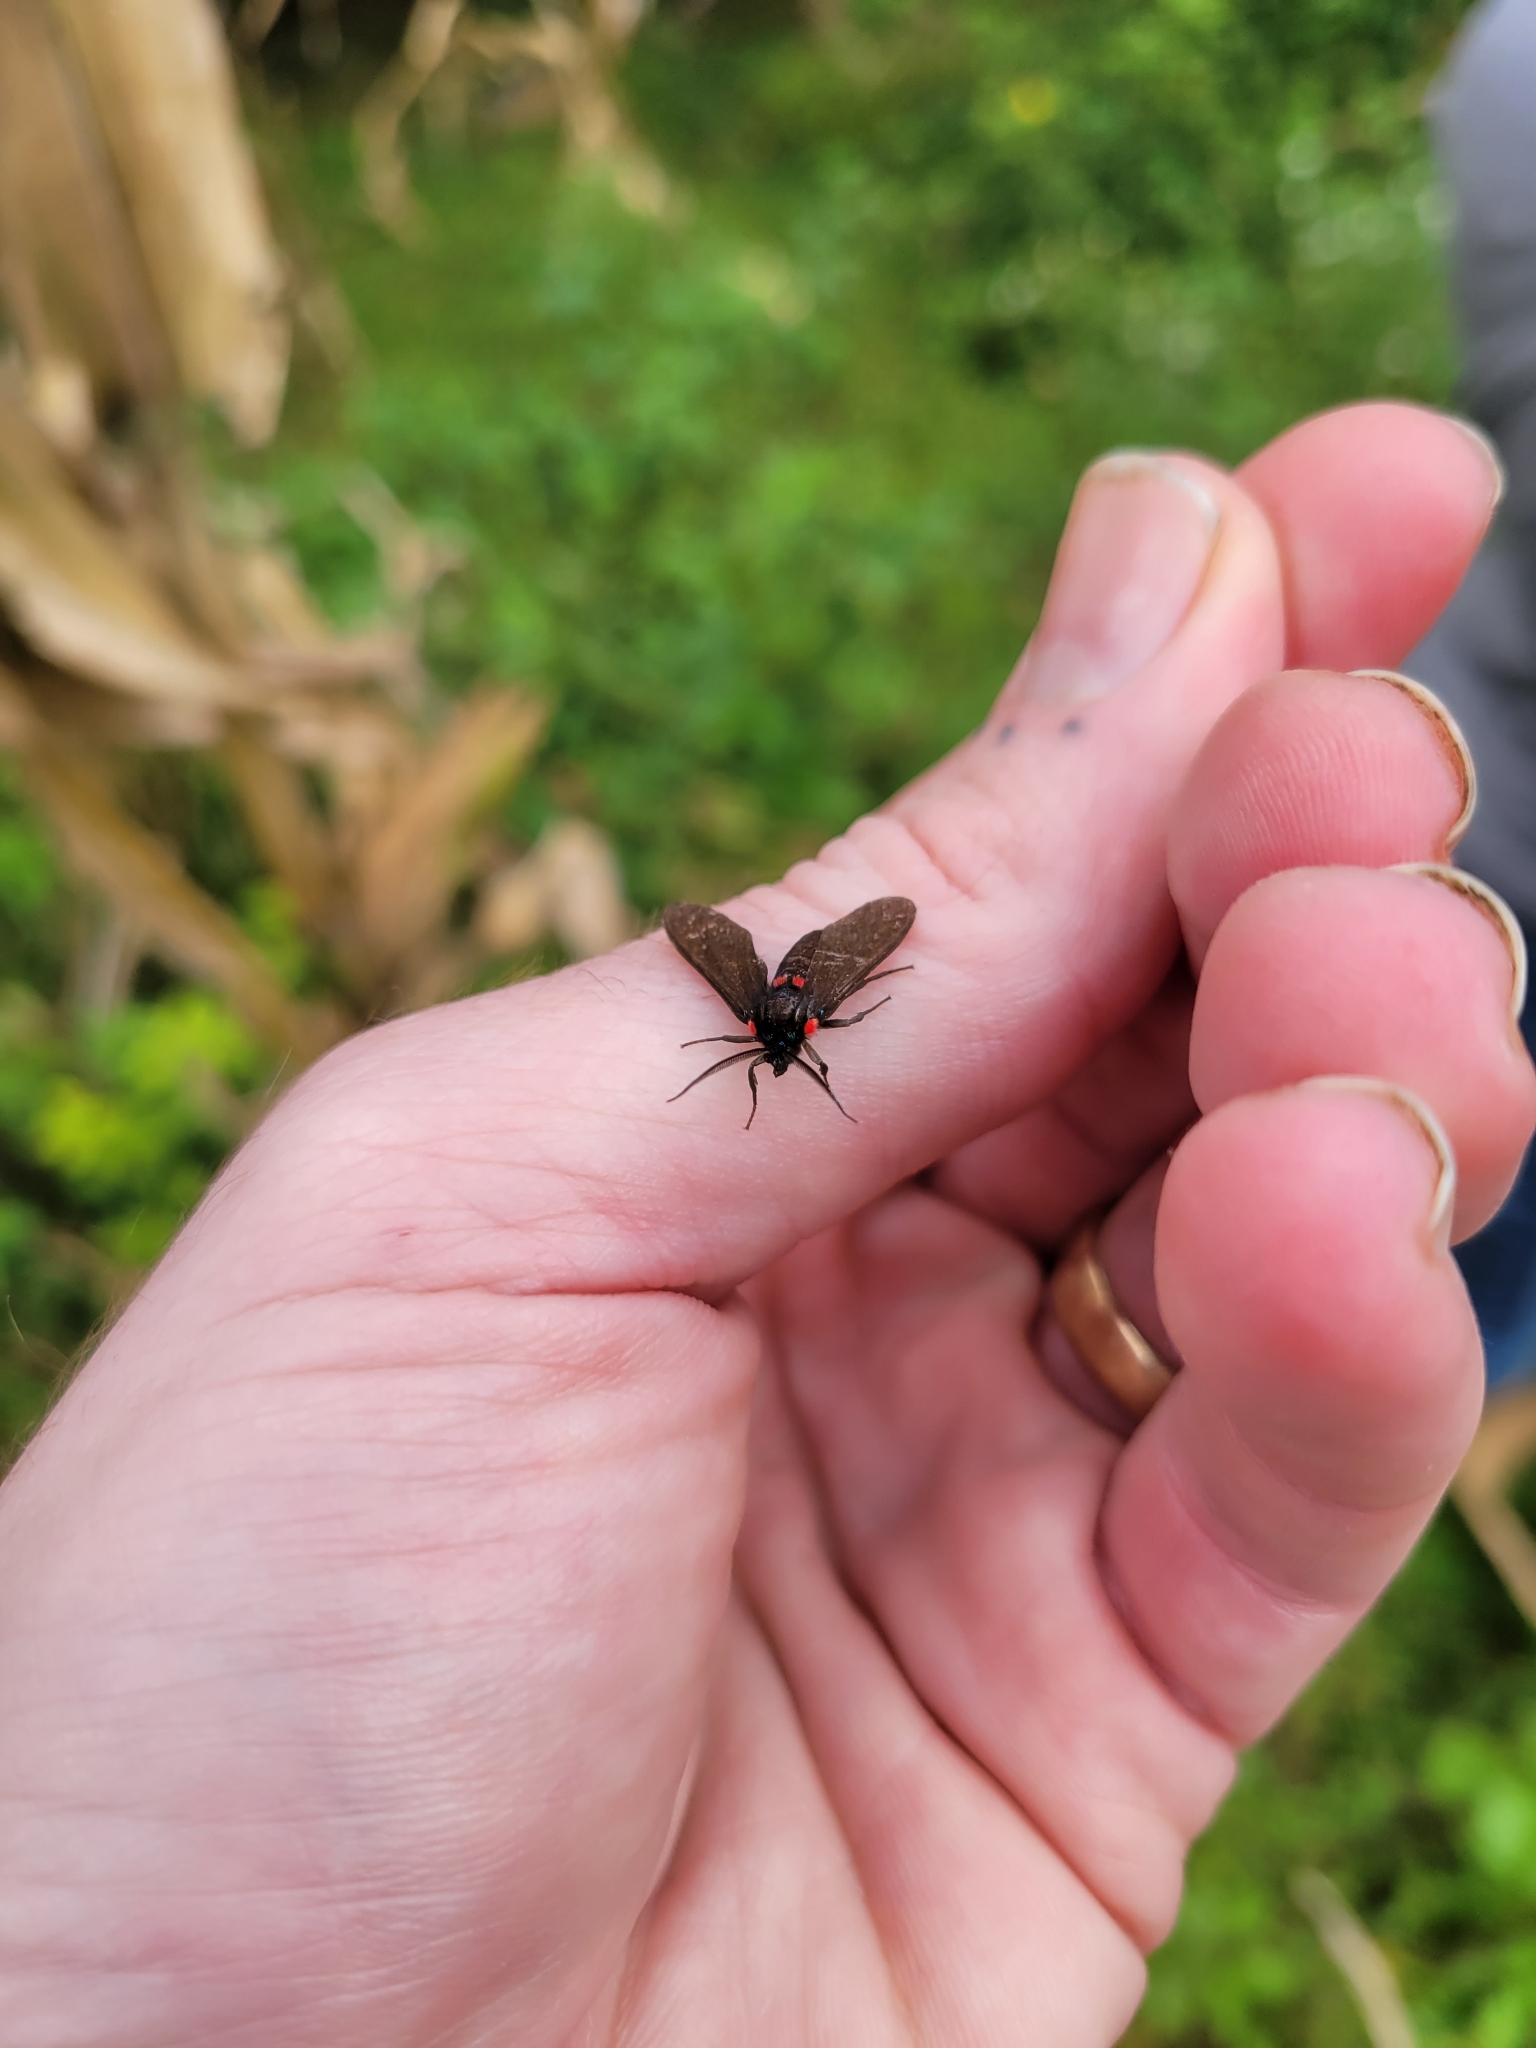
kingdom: Animalia
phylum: Arthropoda
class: Insecta
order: Lepidoptera
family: Erebidae
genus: Ichoria
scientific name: Ichoria quadrigutta
